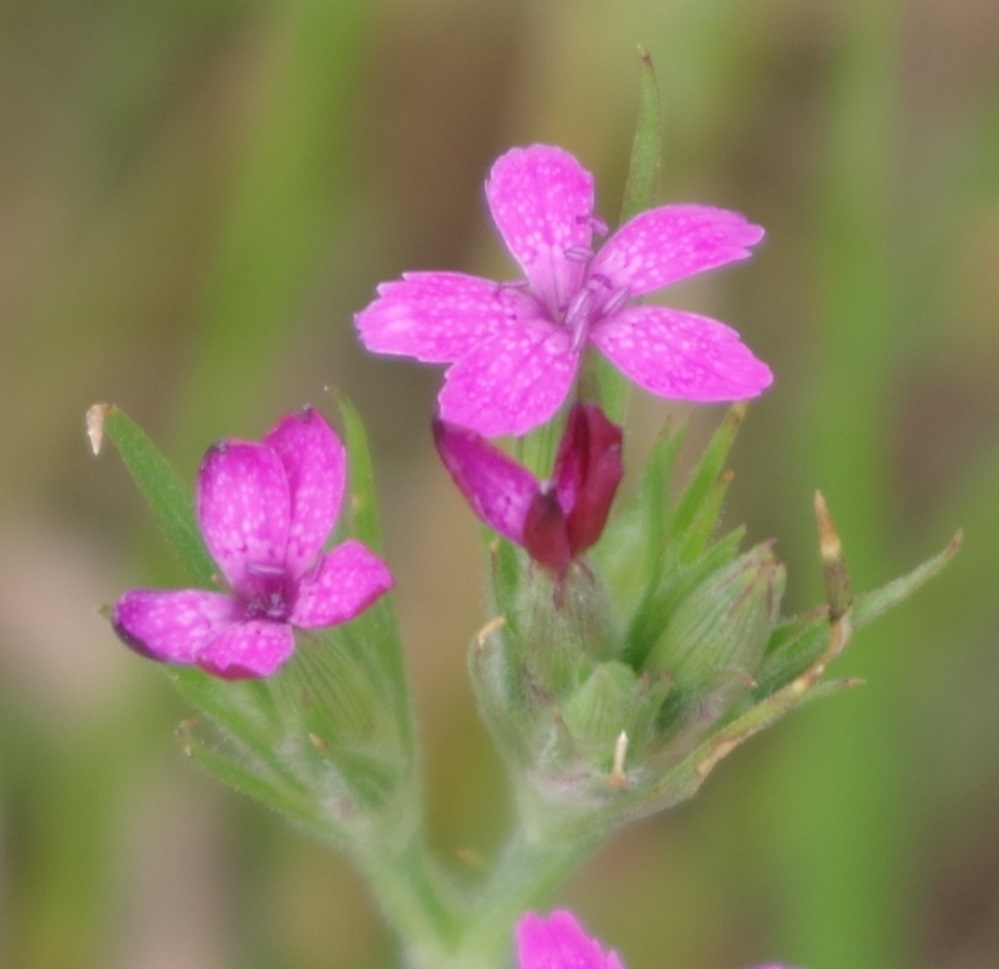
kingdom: Plantae
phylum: Tracheophyta
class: Magnoliopsida
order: Caryophyllales
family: Caryophyllaceae
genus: Dianthus
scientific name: Dianthus armeria
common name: Deptford pink
